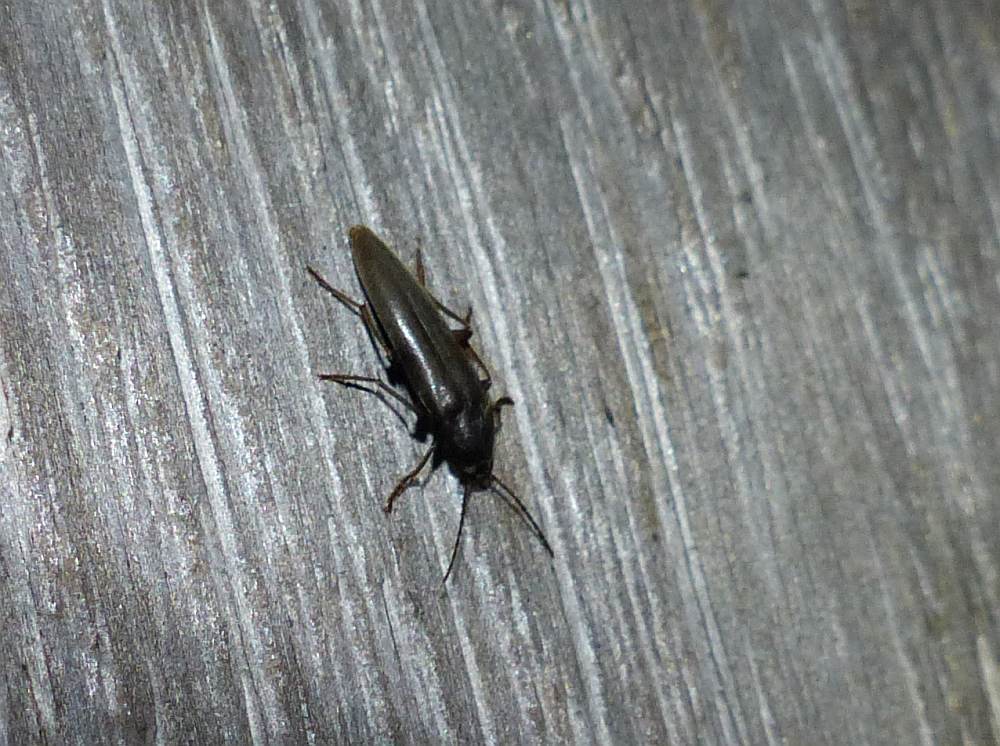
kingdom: Animalia
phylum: Arthropoda
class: Insecta
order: Coleoptera
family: Synchroidae
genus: Synchroa
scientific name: Synchroa punctata
